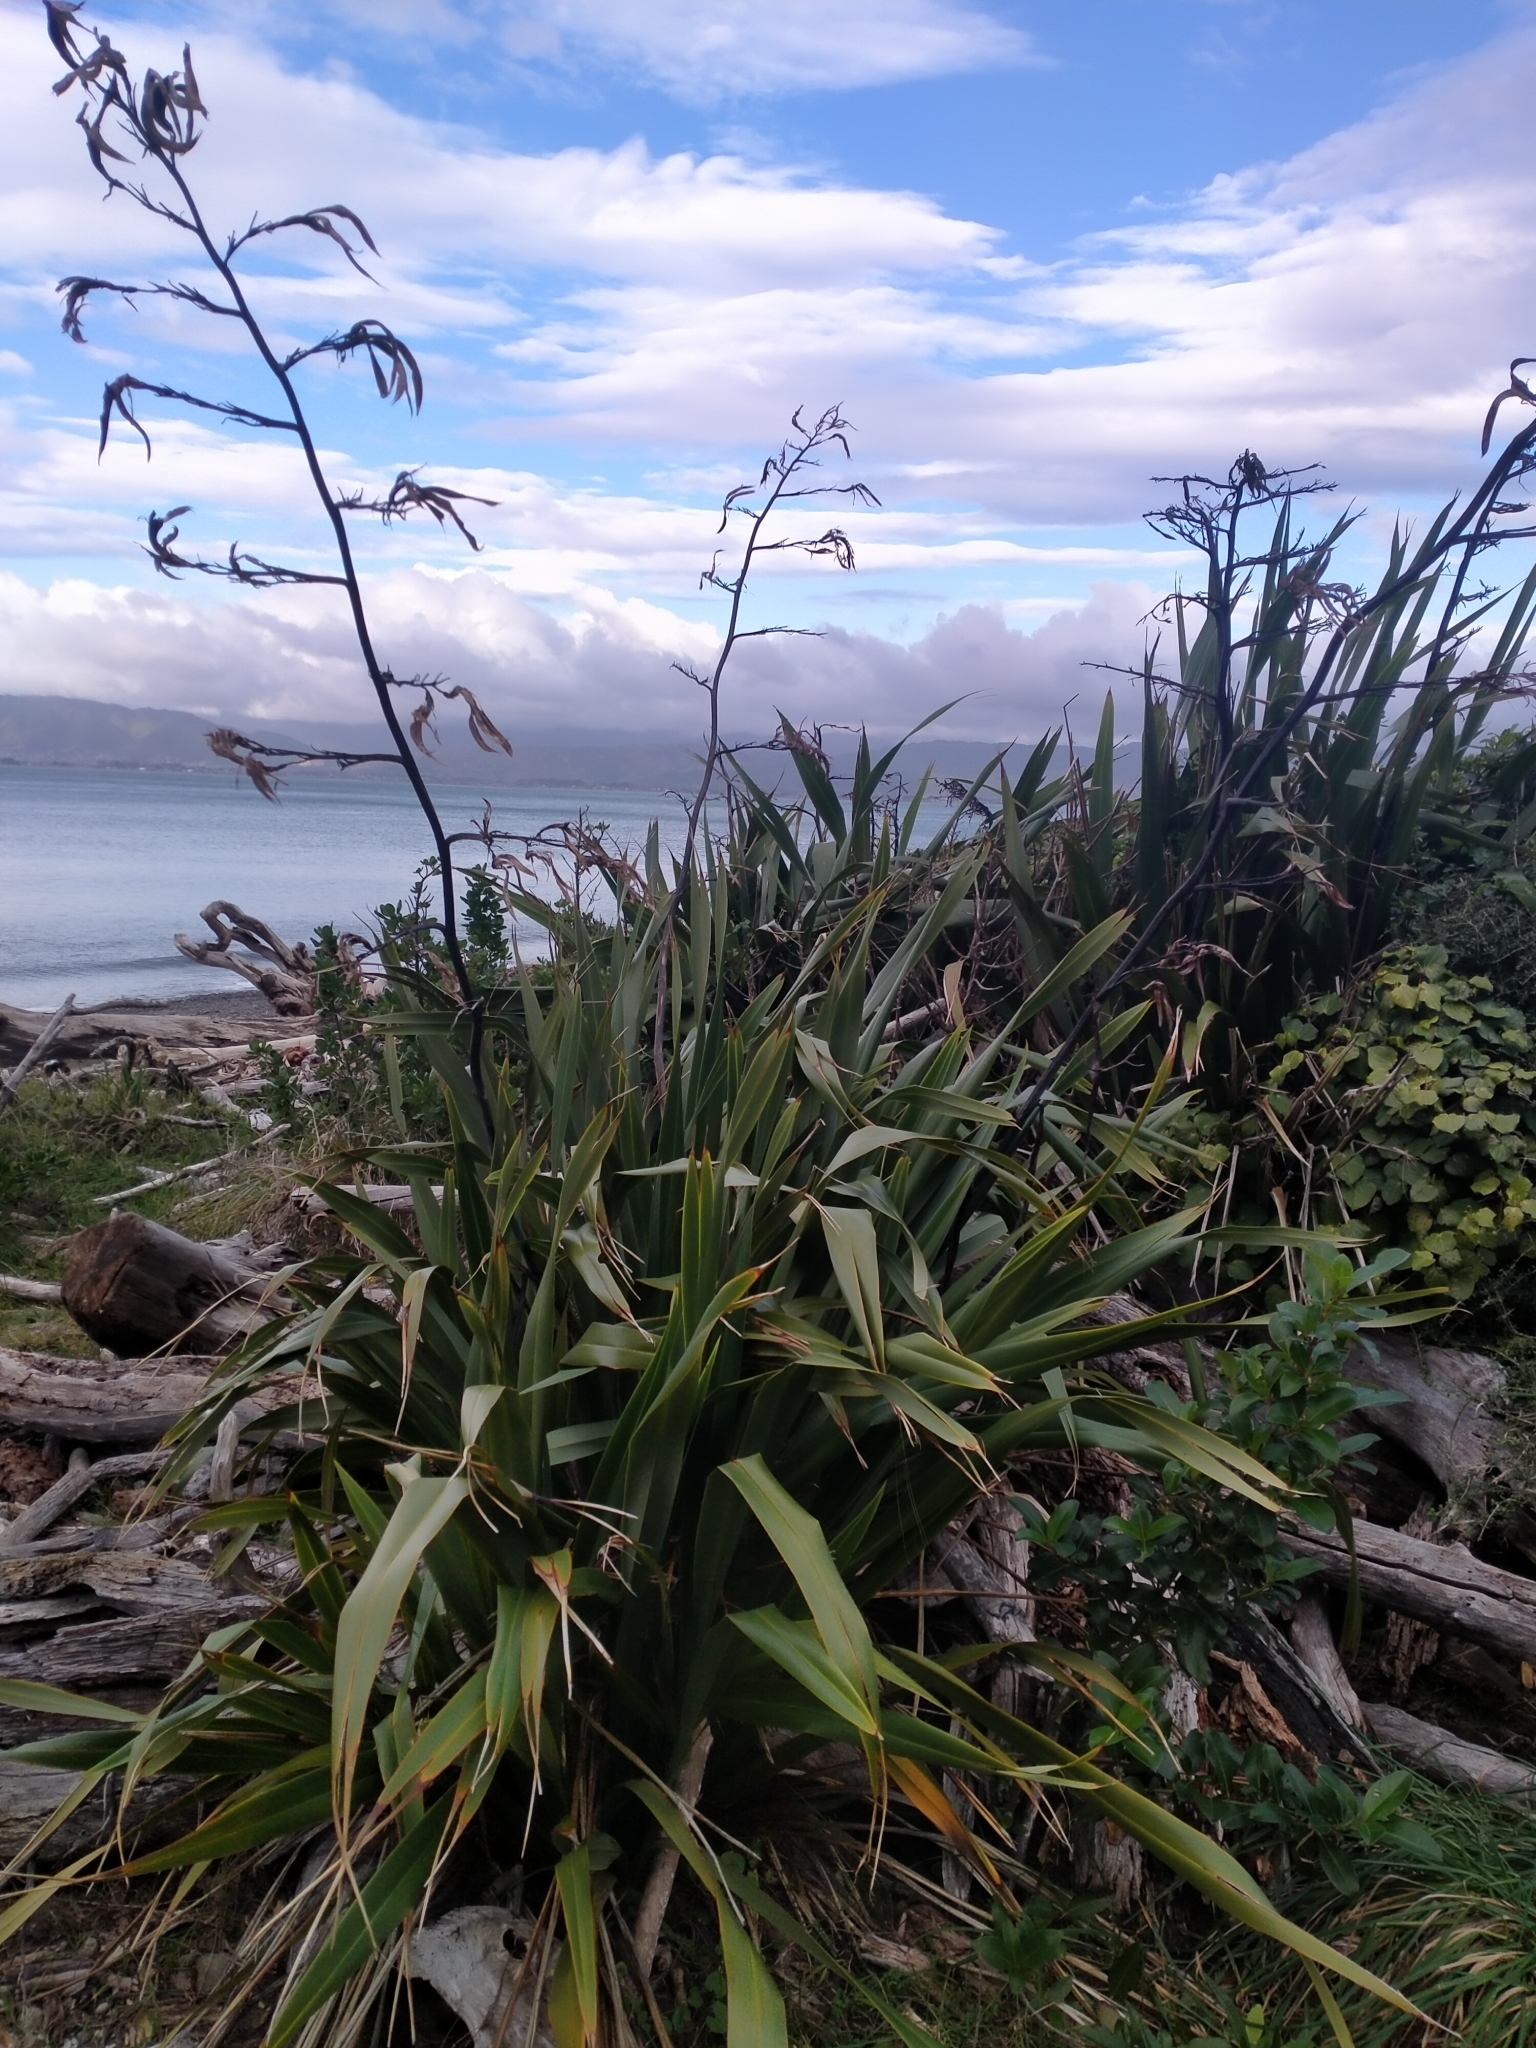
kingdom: Plantae
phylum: Tracheophyta
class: Liliopsida
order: Asparagales
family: Asphodelaceae
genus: Phormium
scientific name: Phormium tenax
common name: New zealand flax
